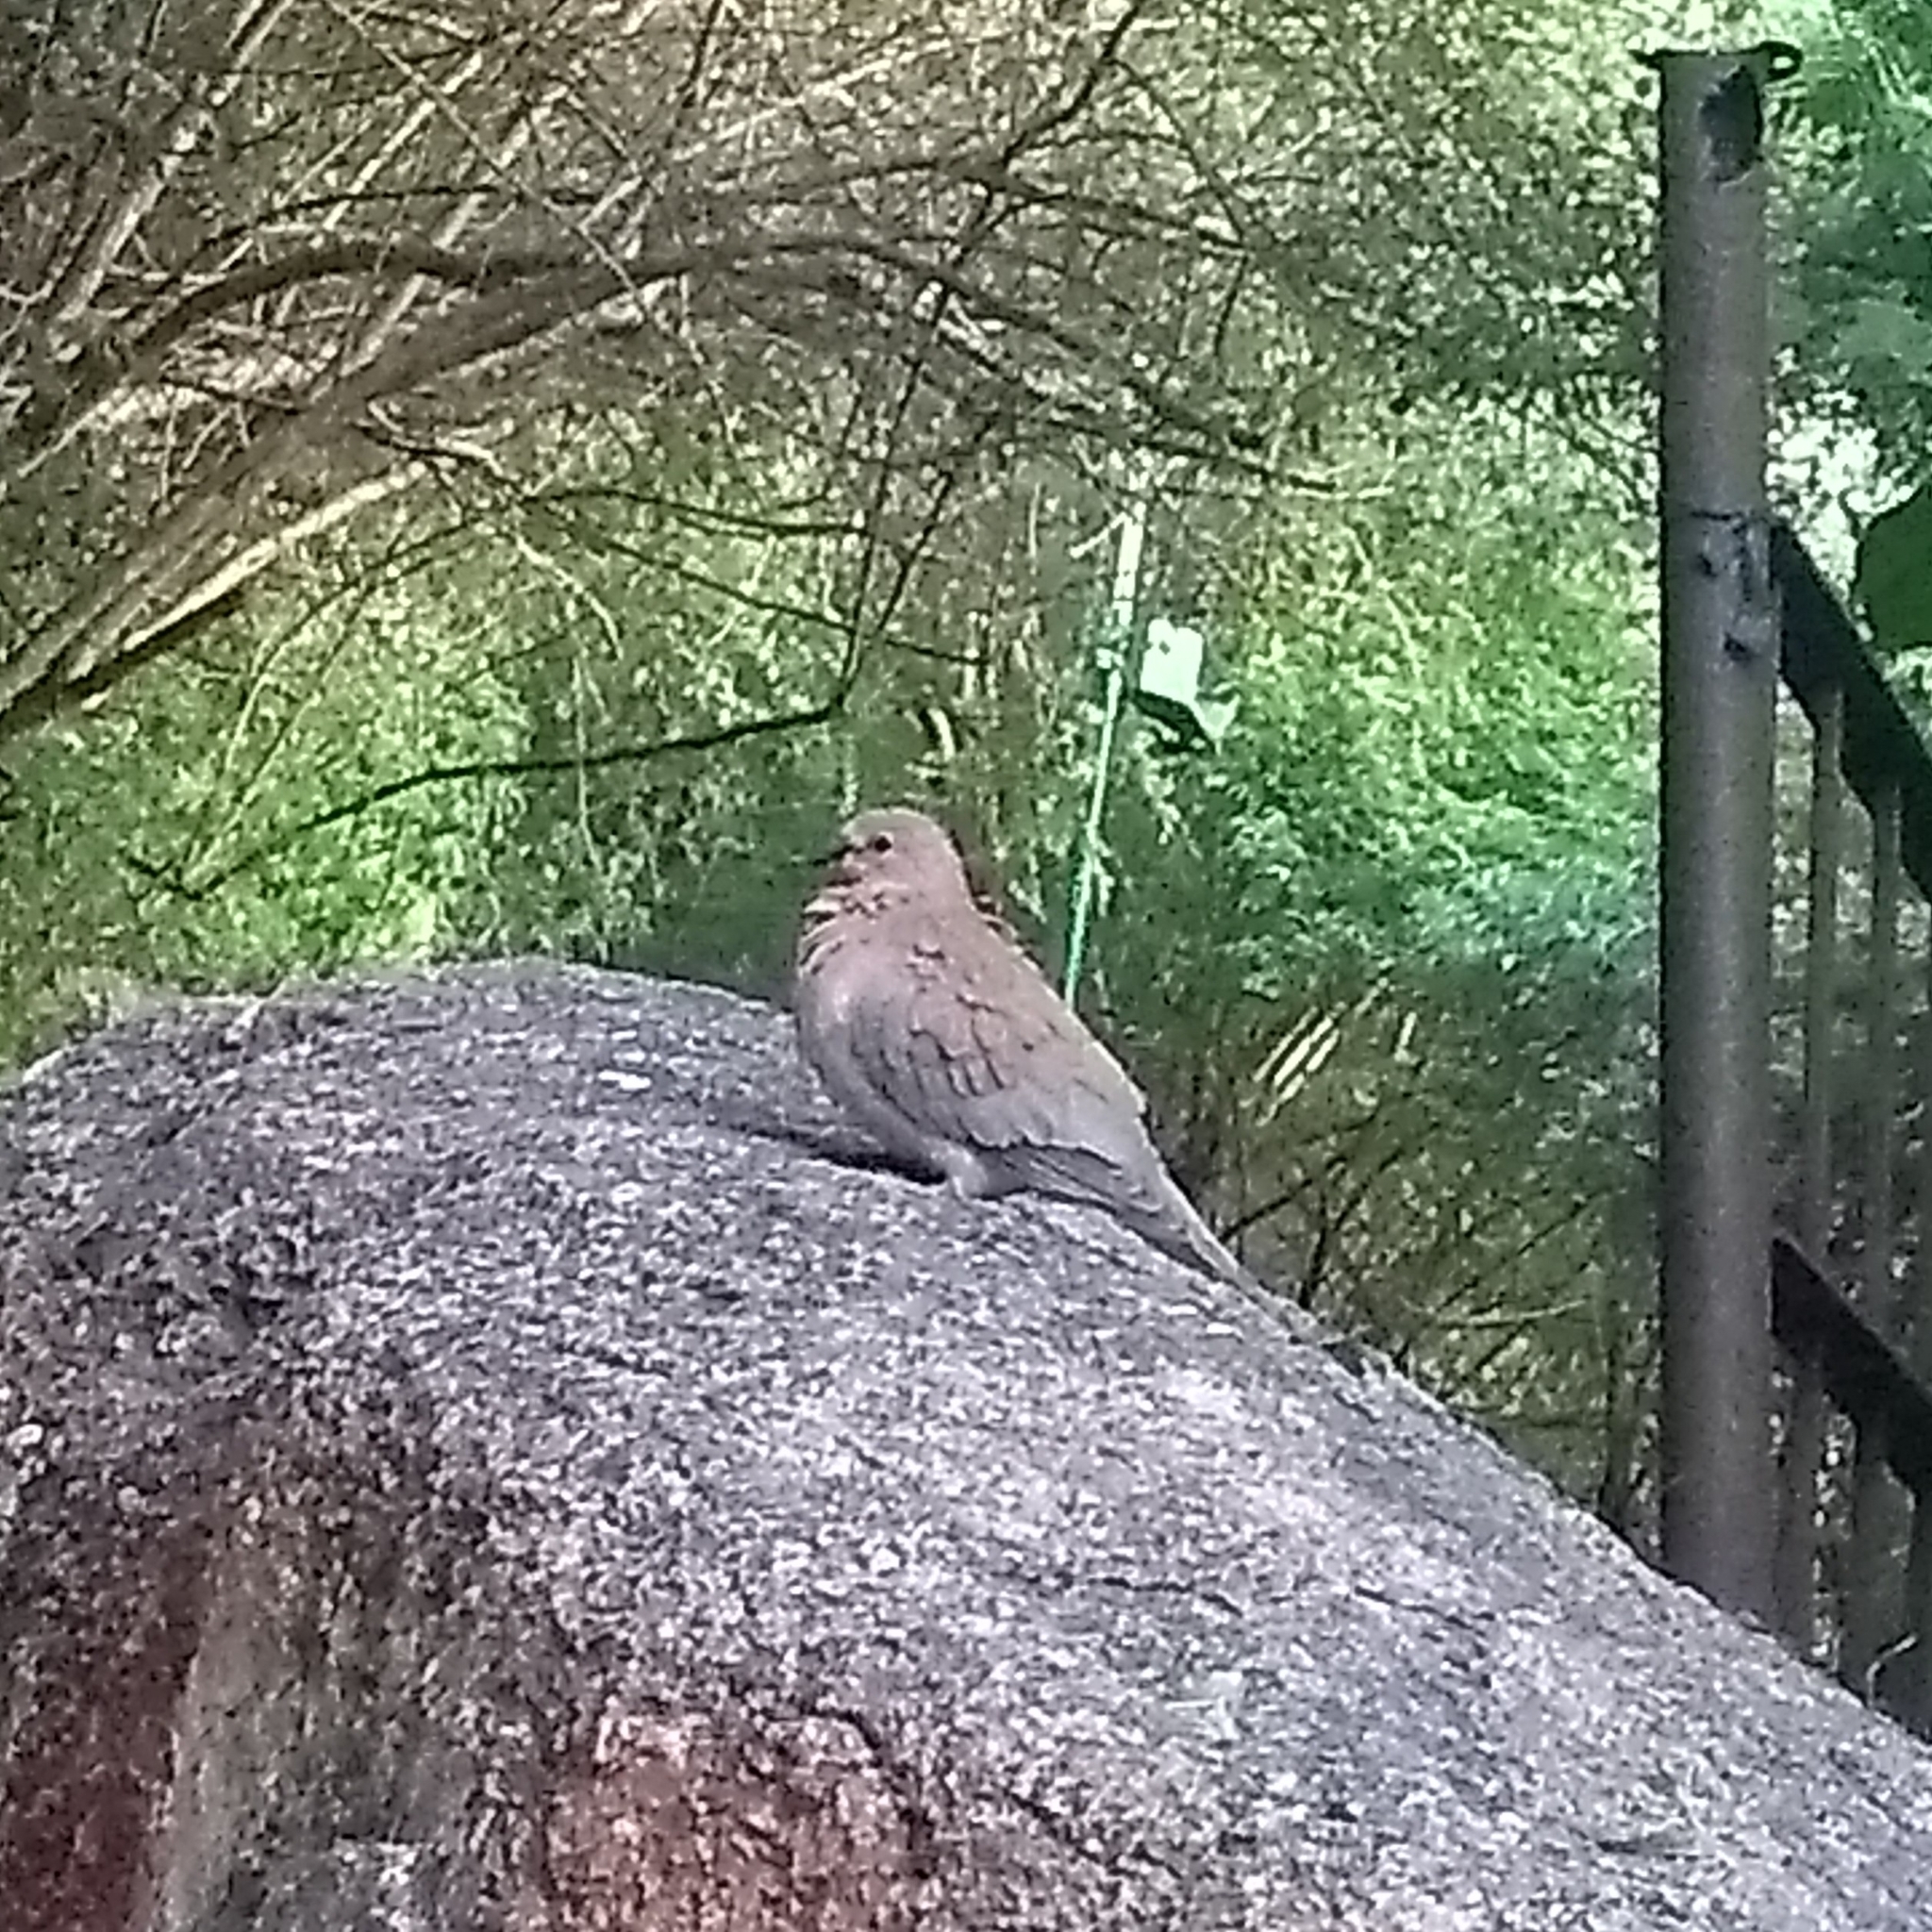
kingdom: Animalia
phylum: Chordata
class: Aves
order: Columbiformes
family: Columbidae
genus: Spilopelia
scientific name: Spilopelia senegalensis
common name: Laughing dove
